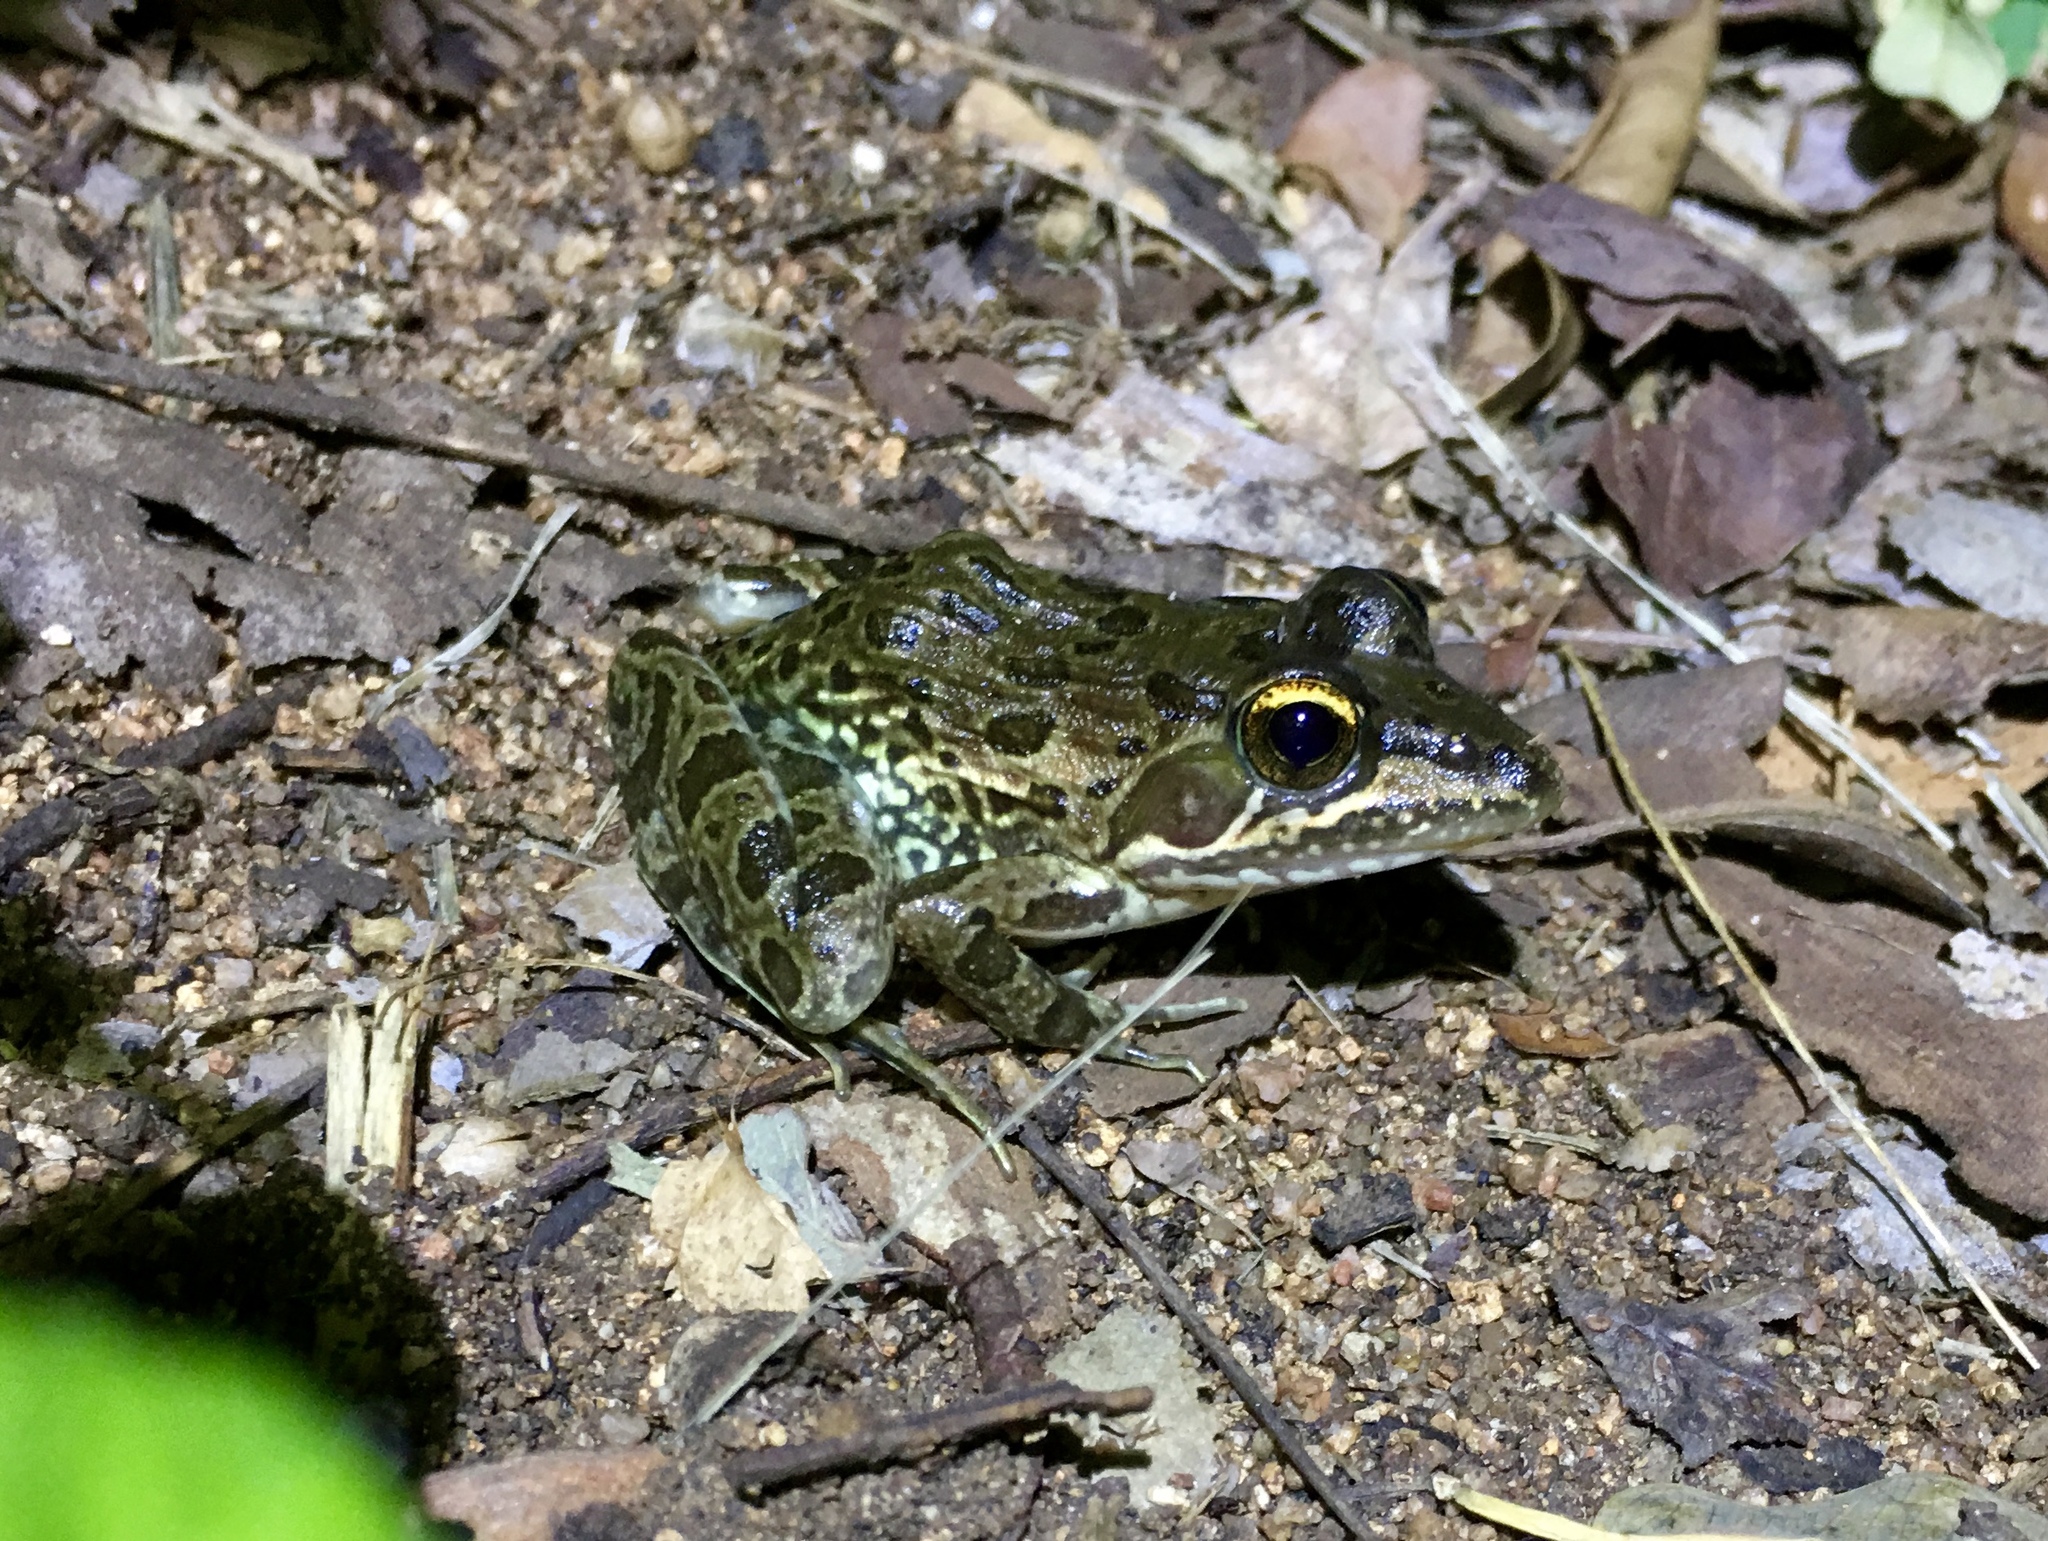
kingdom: Animalia
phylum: Chordata
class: Amphibia
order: Anura
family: Pyxicephalidae
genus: Amietia
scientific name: Amietia delalandii
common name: Delalande's river frog
